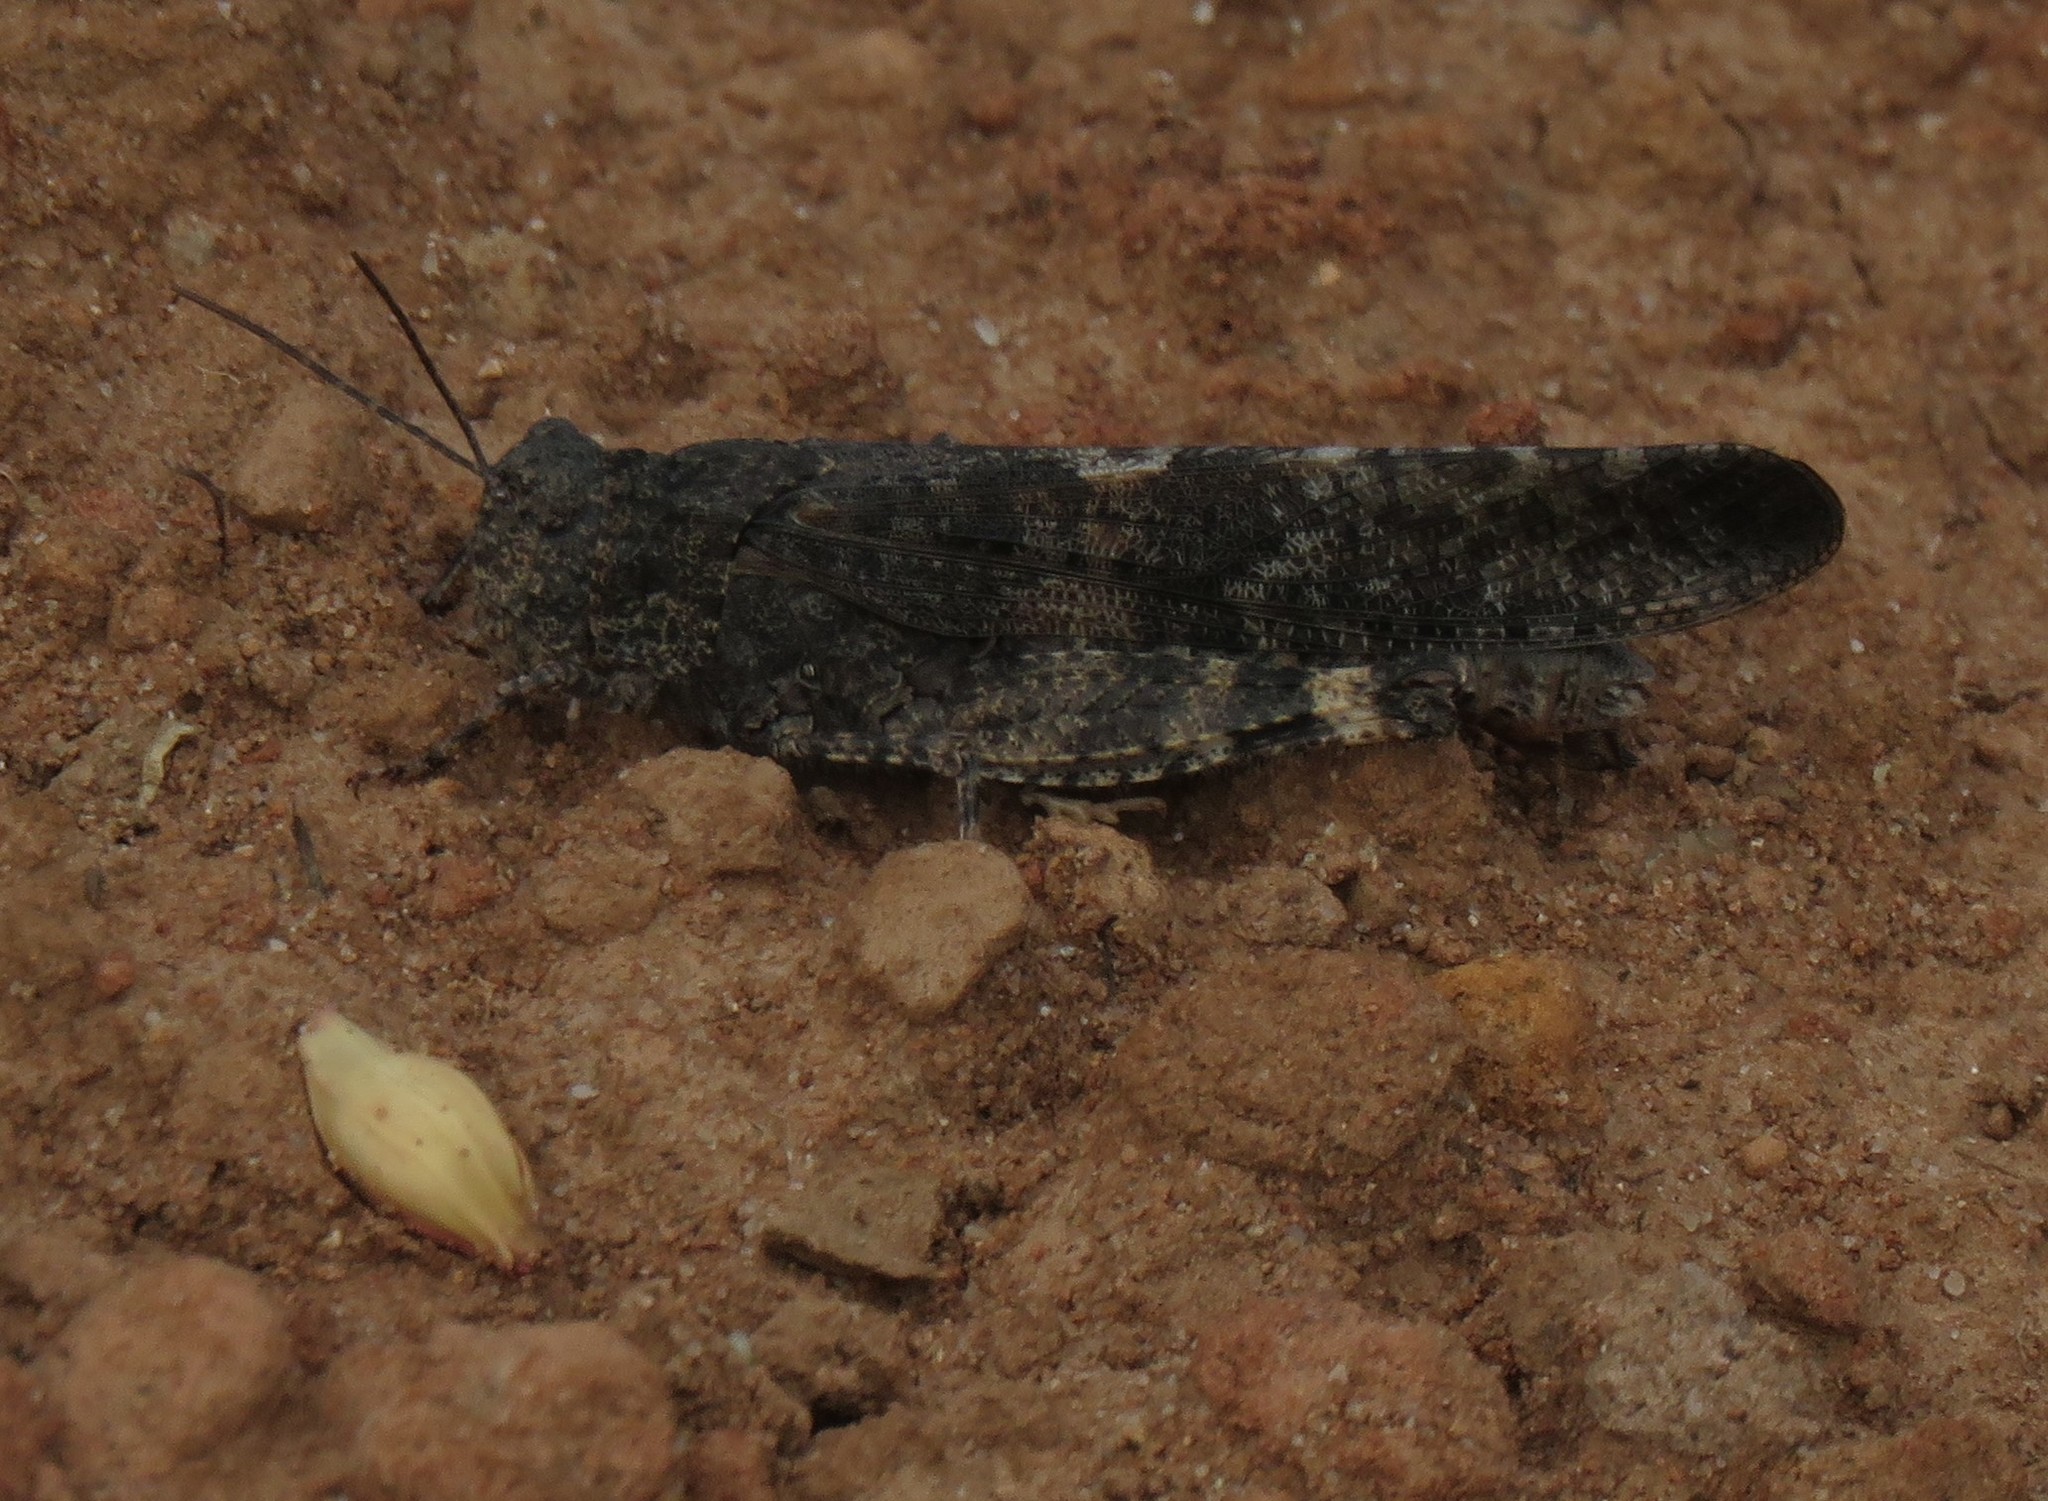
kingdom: Animalia
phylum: Arthropoda
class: Insecta
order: Orthoptera
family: Acrididae
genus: Trimerotropis
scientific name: Trimerotropis verruculata
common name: Crackling forest grasshopper
